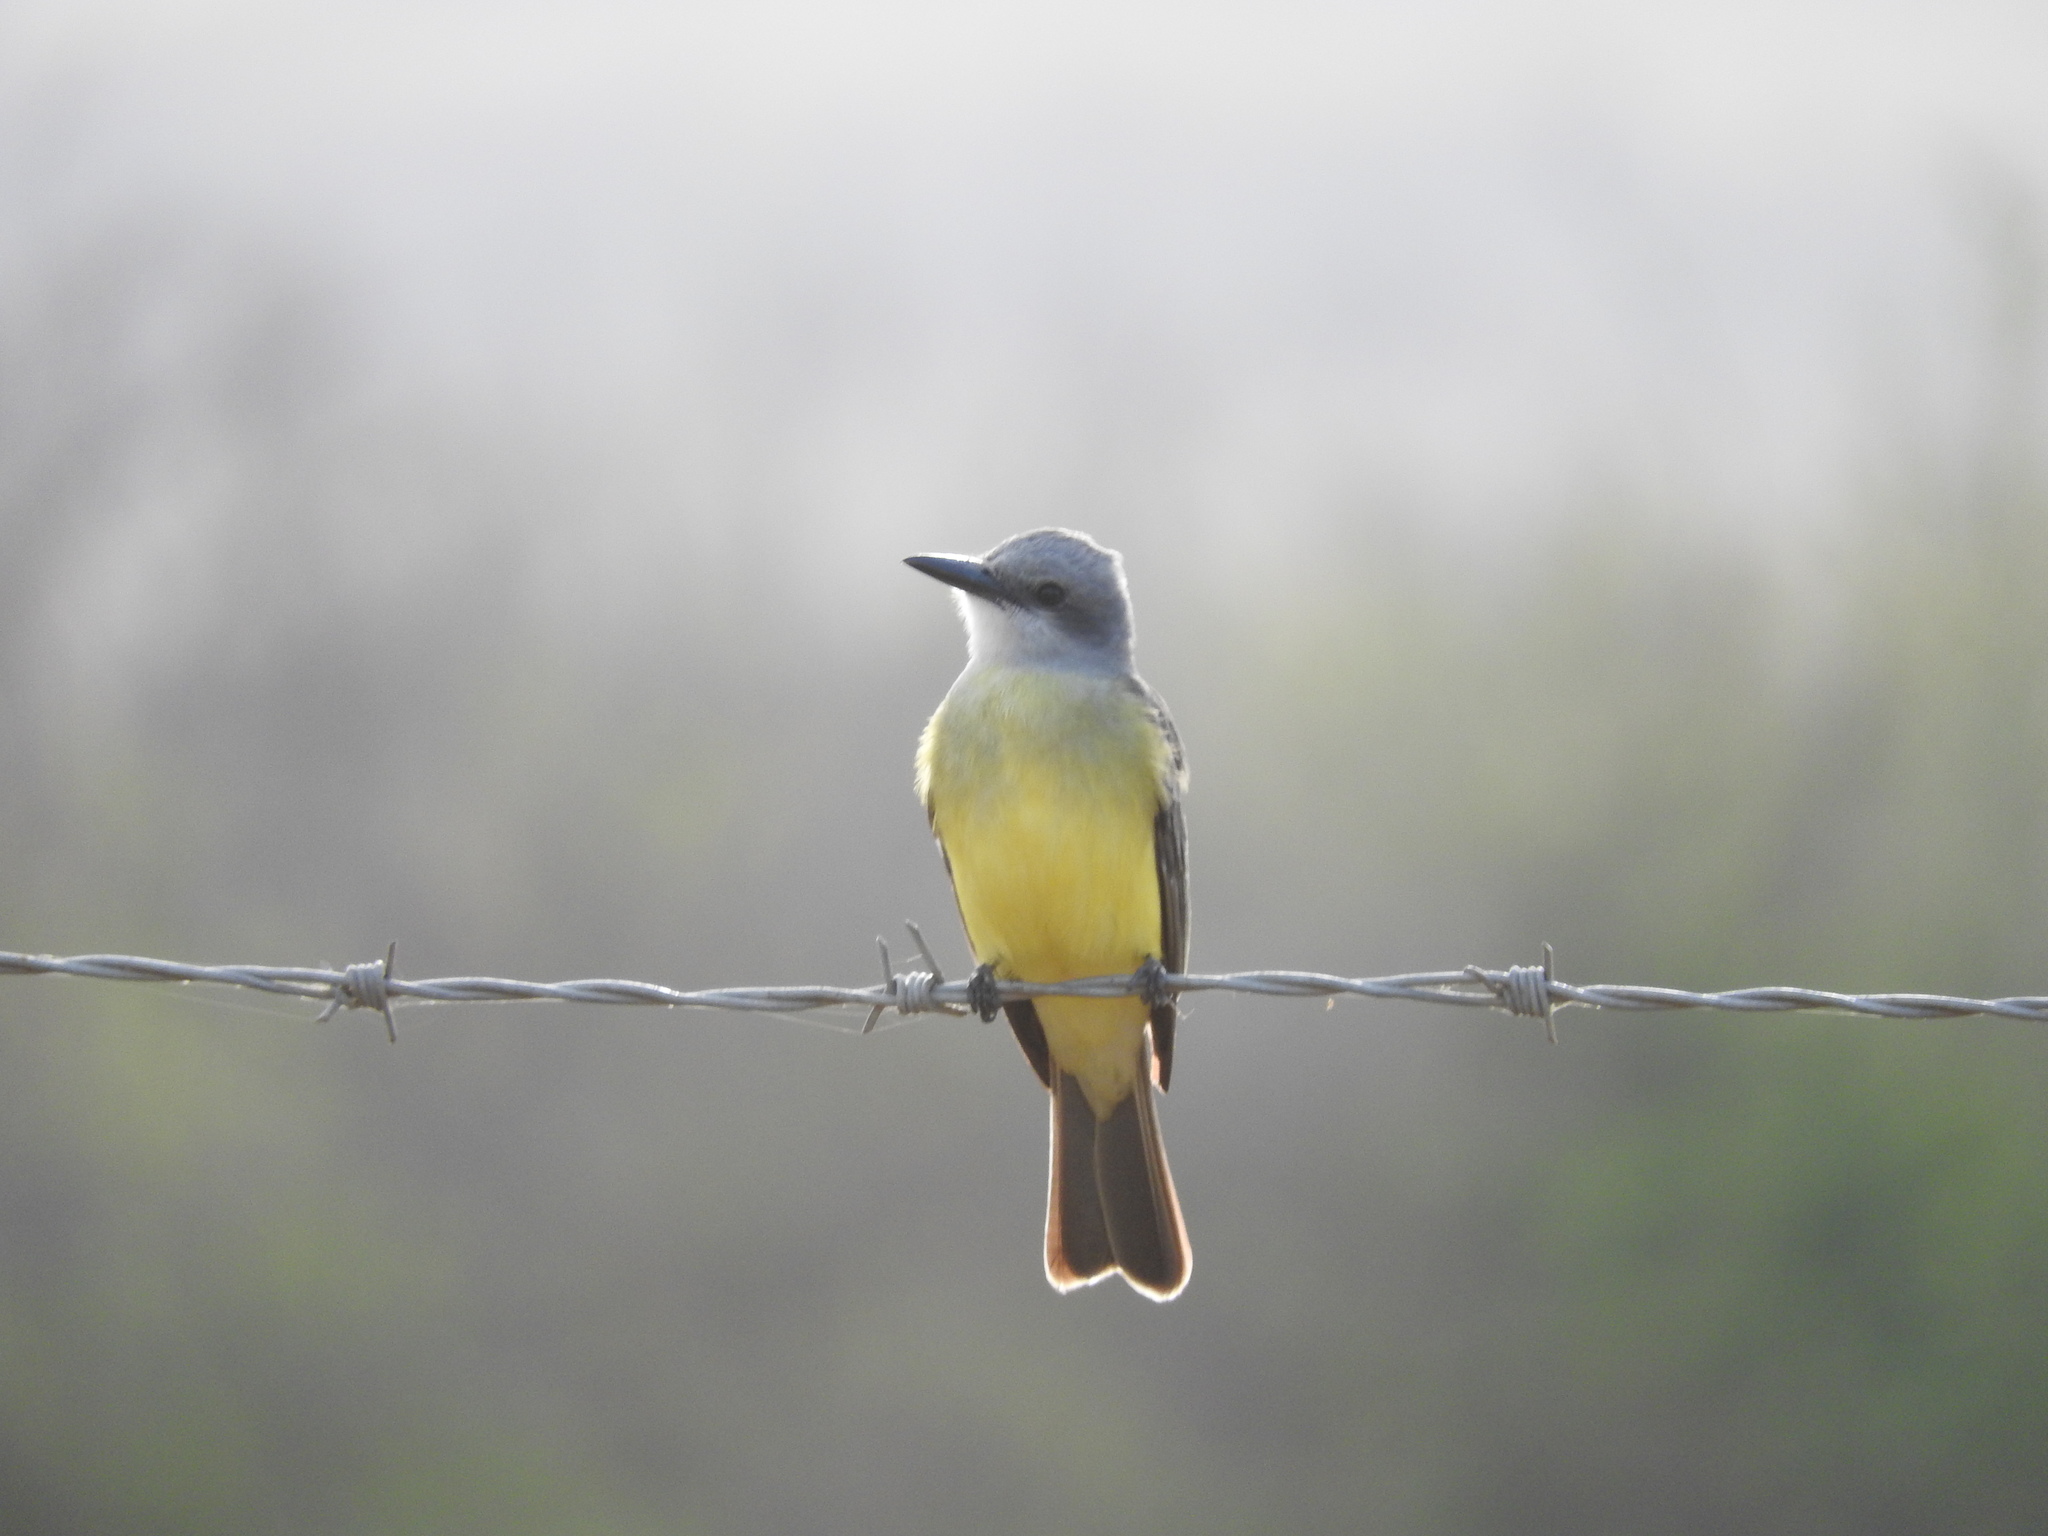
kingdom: Animalia
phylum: Chordata
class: Aves
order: Passeriformes
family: Tyrannidae
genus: Tyrannus
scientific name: Tyrannus melancholicus
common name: Tropical kingbird
